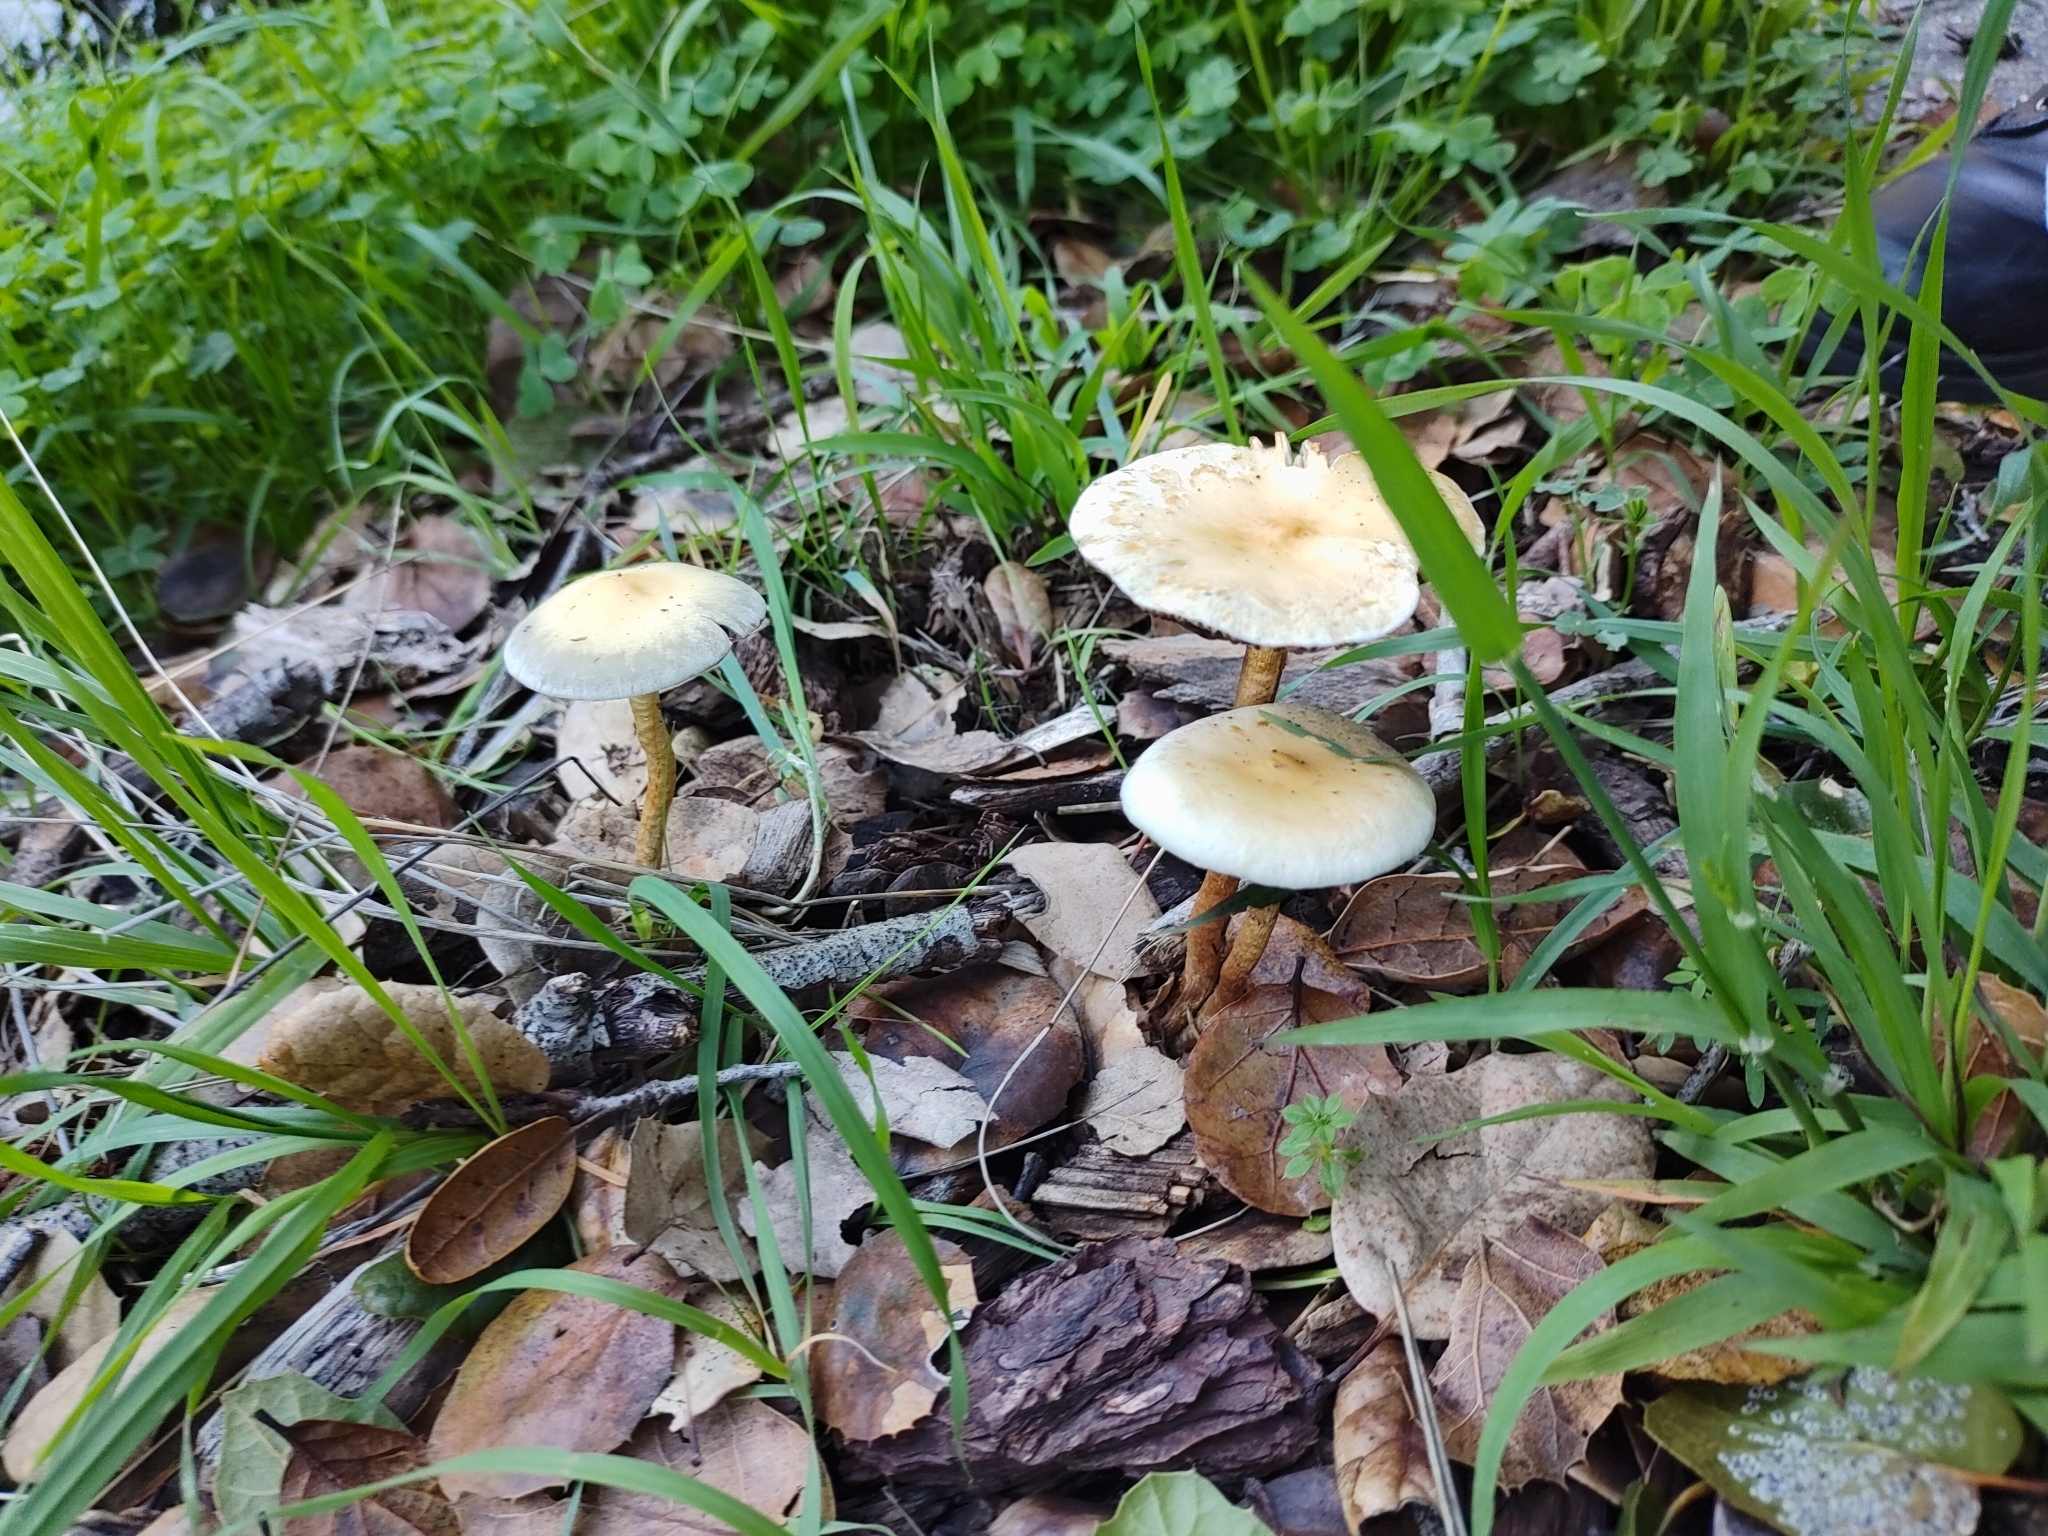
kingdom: Fungi
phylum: Basidiomycota
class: Agaricomycetes
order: Agaricales
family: Strophariaceae
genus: Leratiomyces
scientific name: Leratiomyces percevalii
